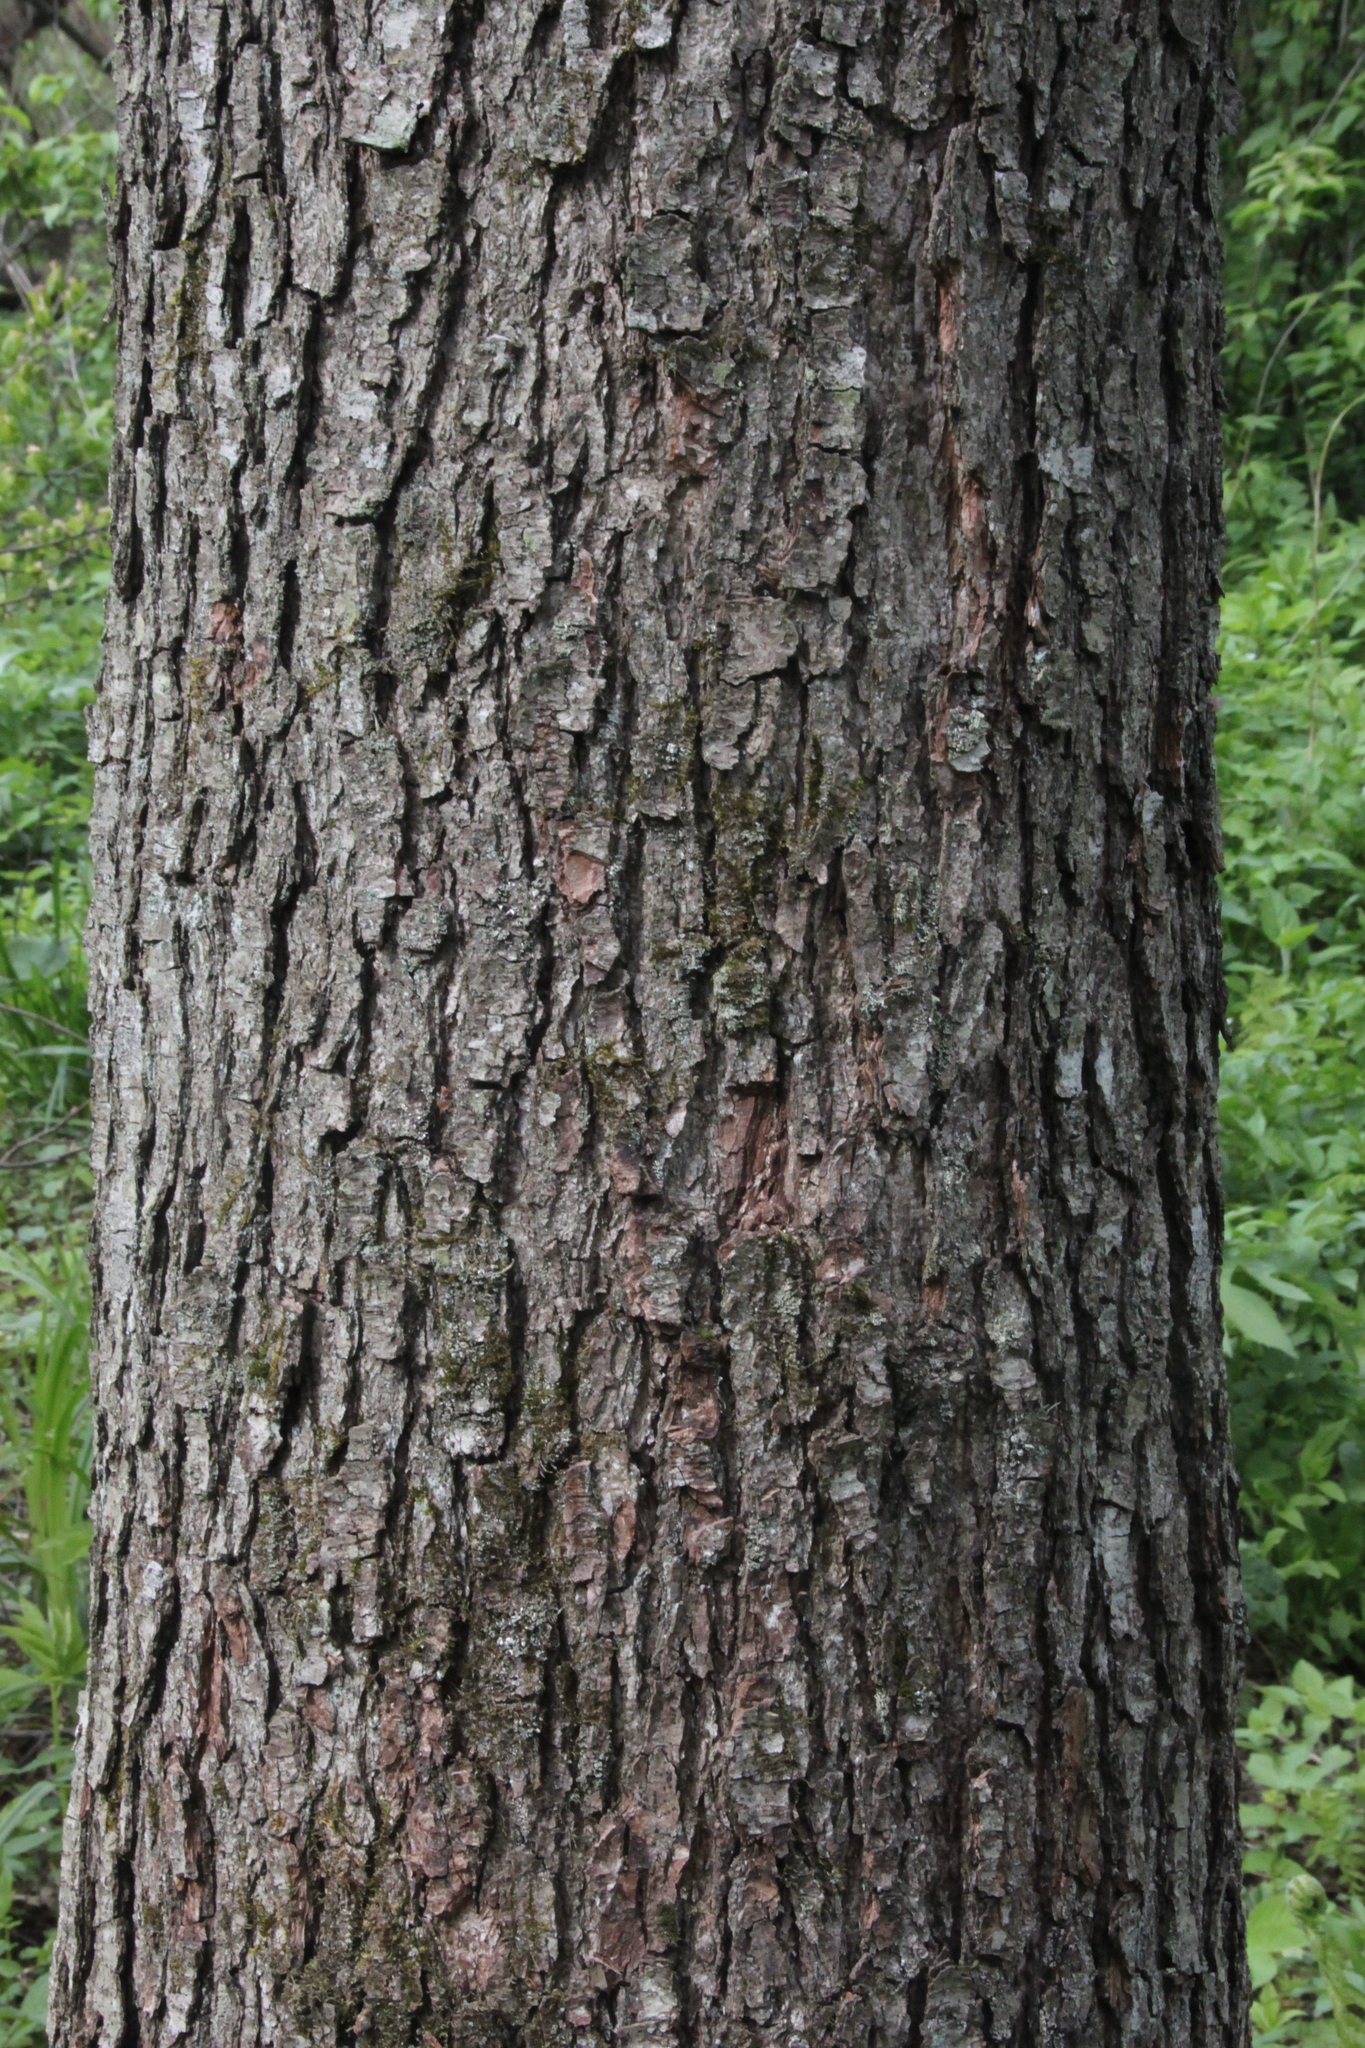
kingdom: Plantae
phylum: Tracheophyta
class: Magnoliopsida
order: Fagales
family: Betulaceae
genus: Alnus
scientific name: Alnus glutinosa
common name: Black alder
